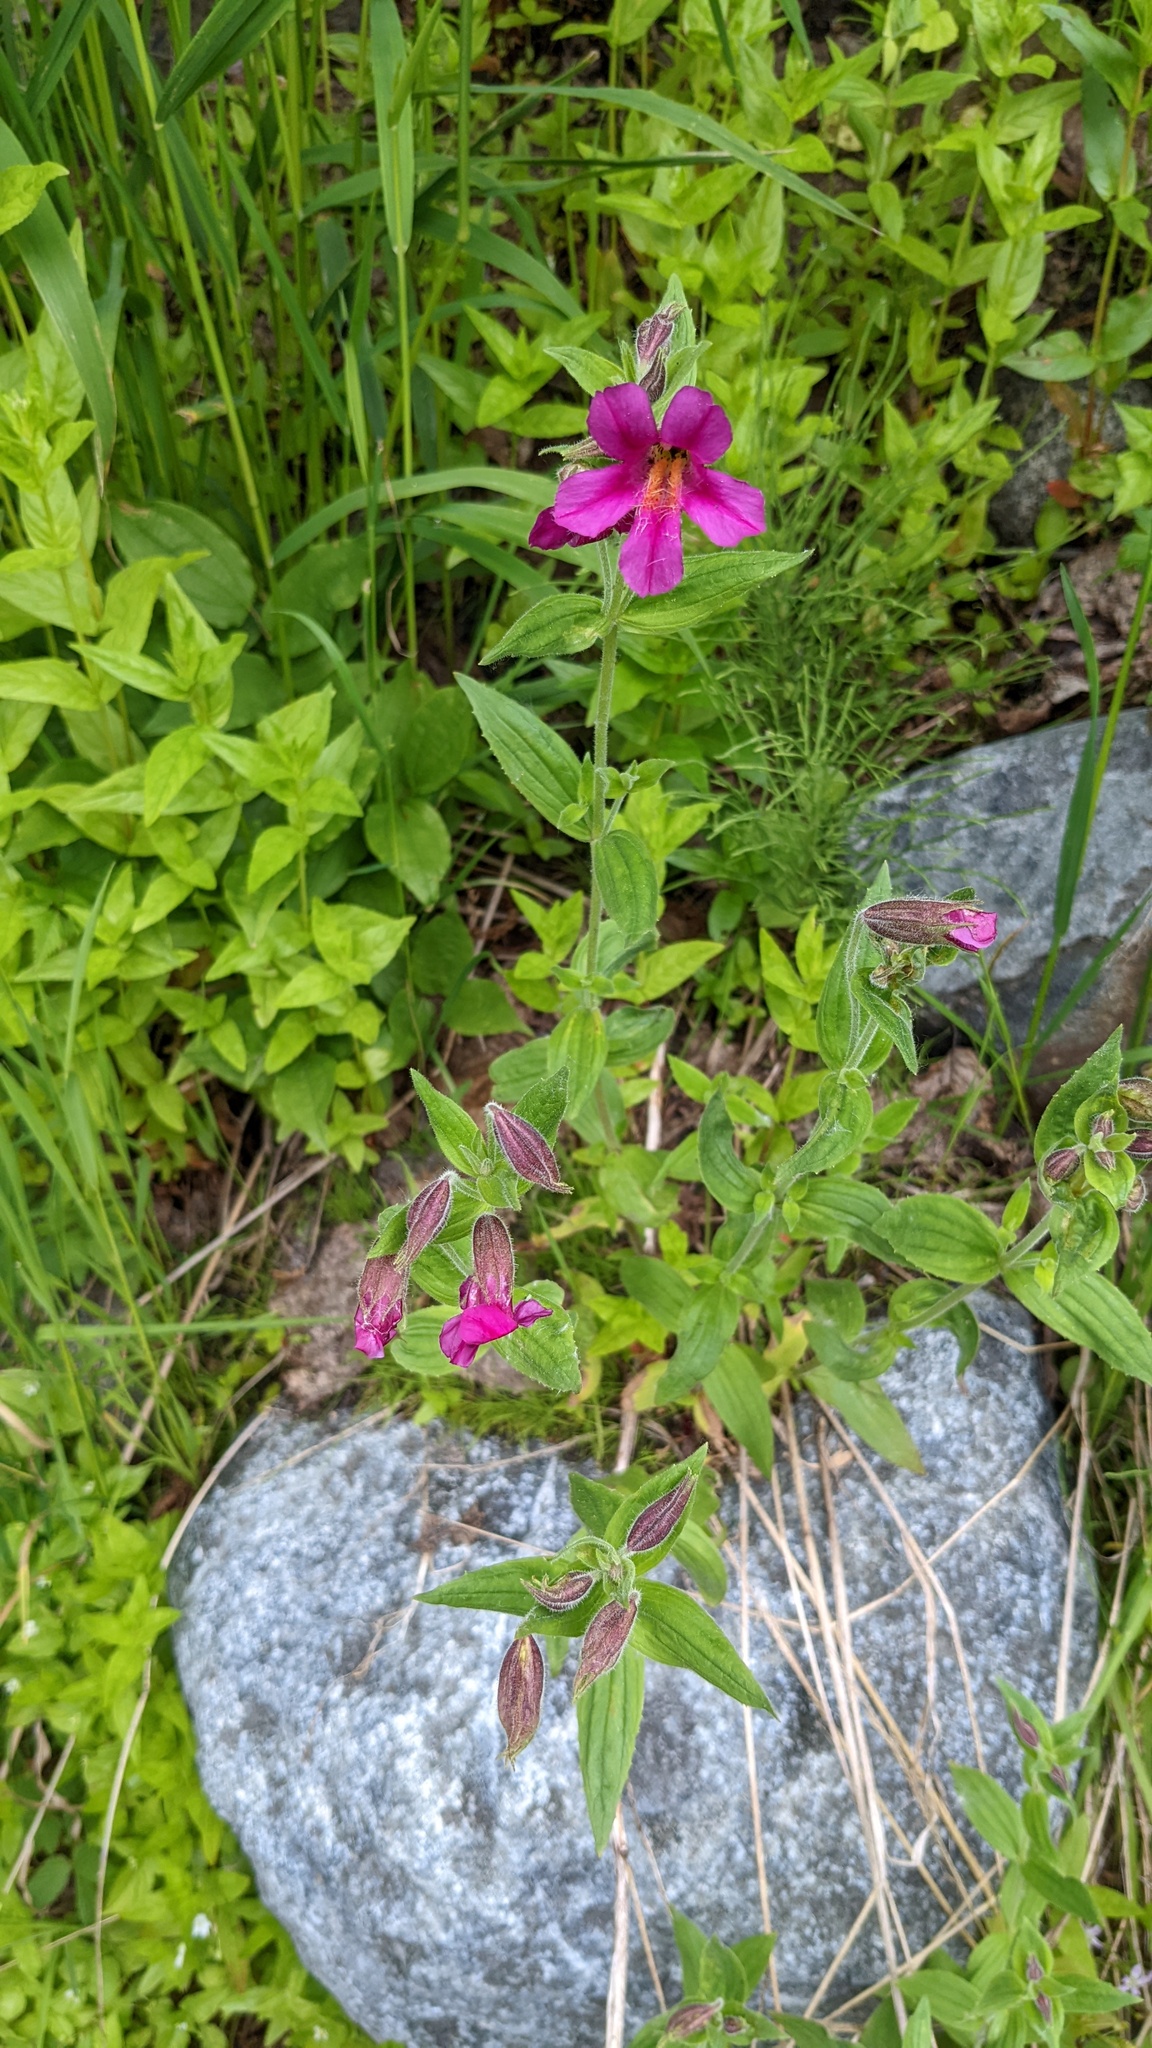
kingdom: Plantae
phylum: Tracheophyta
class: Magnoliopsida
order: Lamiales
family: Phrymaceae
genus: Erythranthe
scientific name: Erythranthe lewisii
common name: Lewis's monkey-flower
